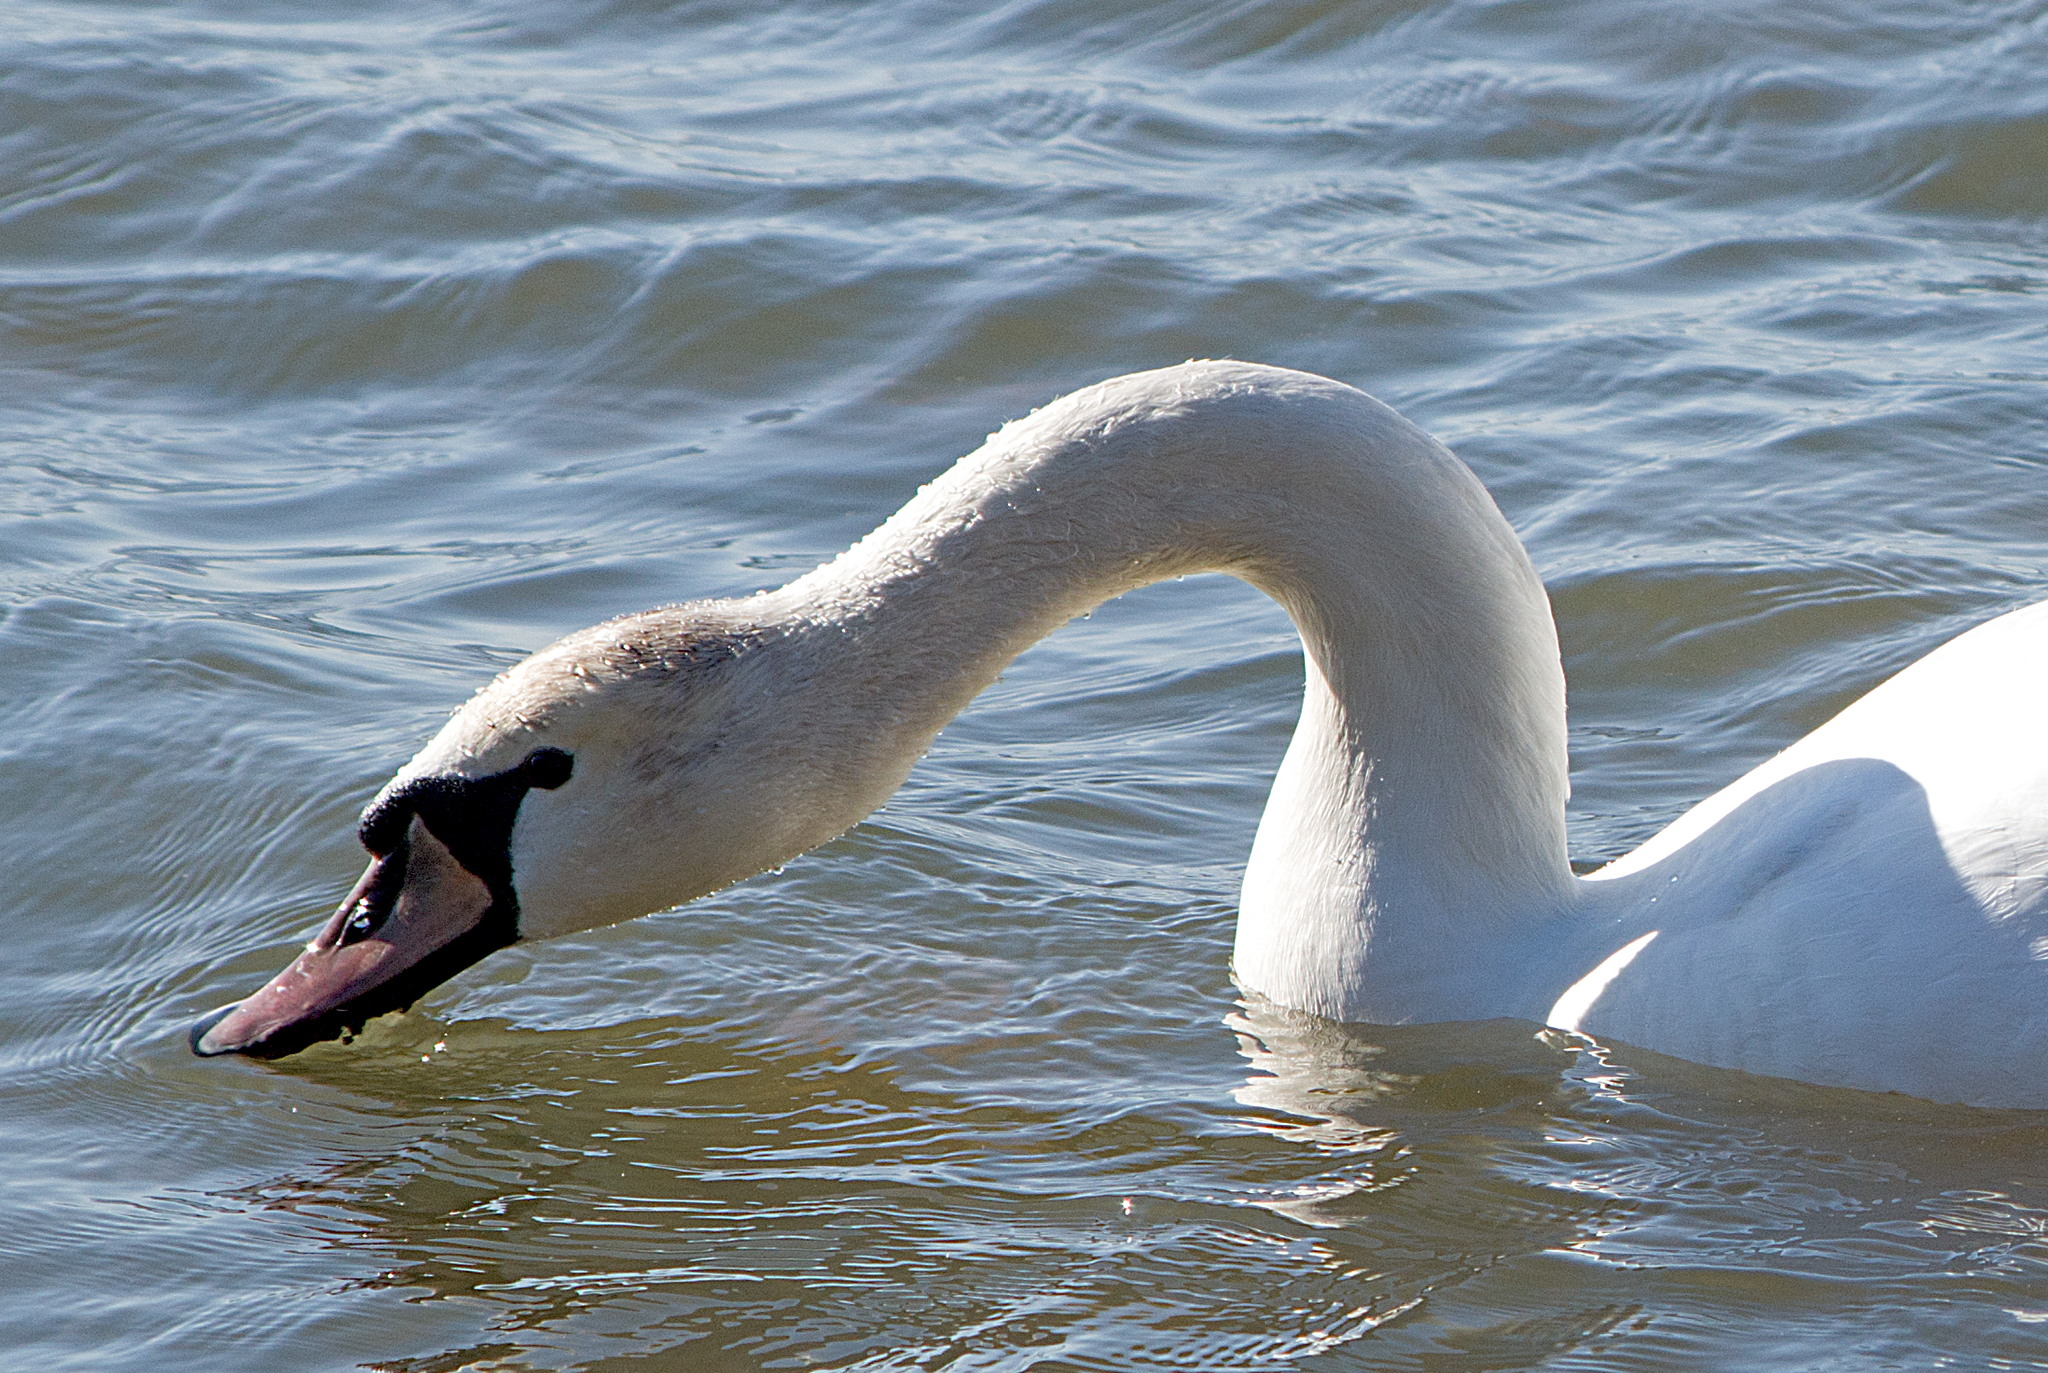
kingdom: Animalia
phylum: Chordata
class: Aves
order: Anseriformes
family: Anatidae
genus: Cygnus
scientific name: Cygnus olor
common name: Mute swan
